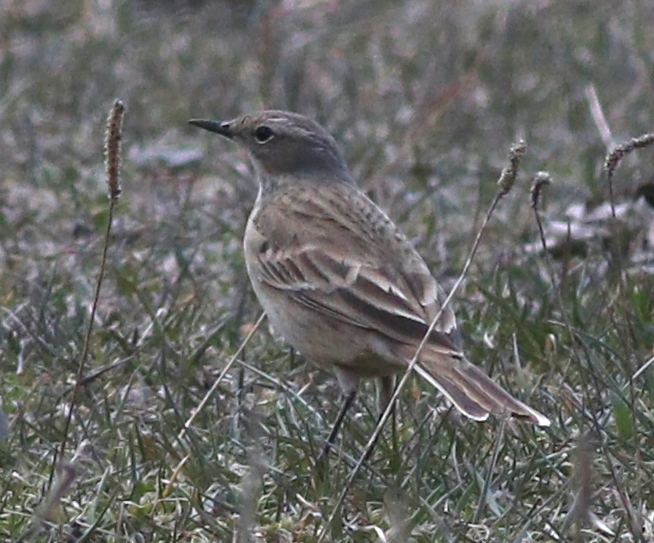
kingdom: Animalia
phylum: Chordata
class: Aves
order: Passeriformes
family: Motacillidae
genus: Anthus
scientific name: Anthus spinoletta
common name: Water pipit
